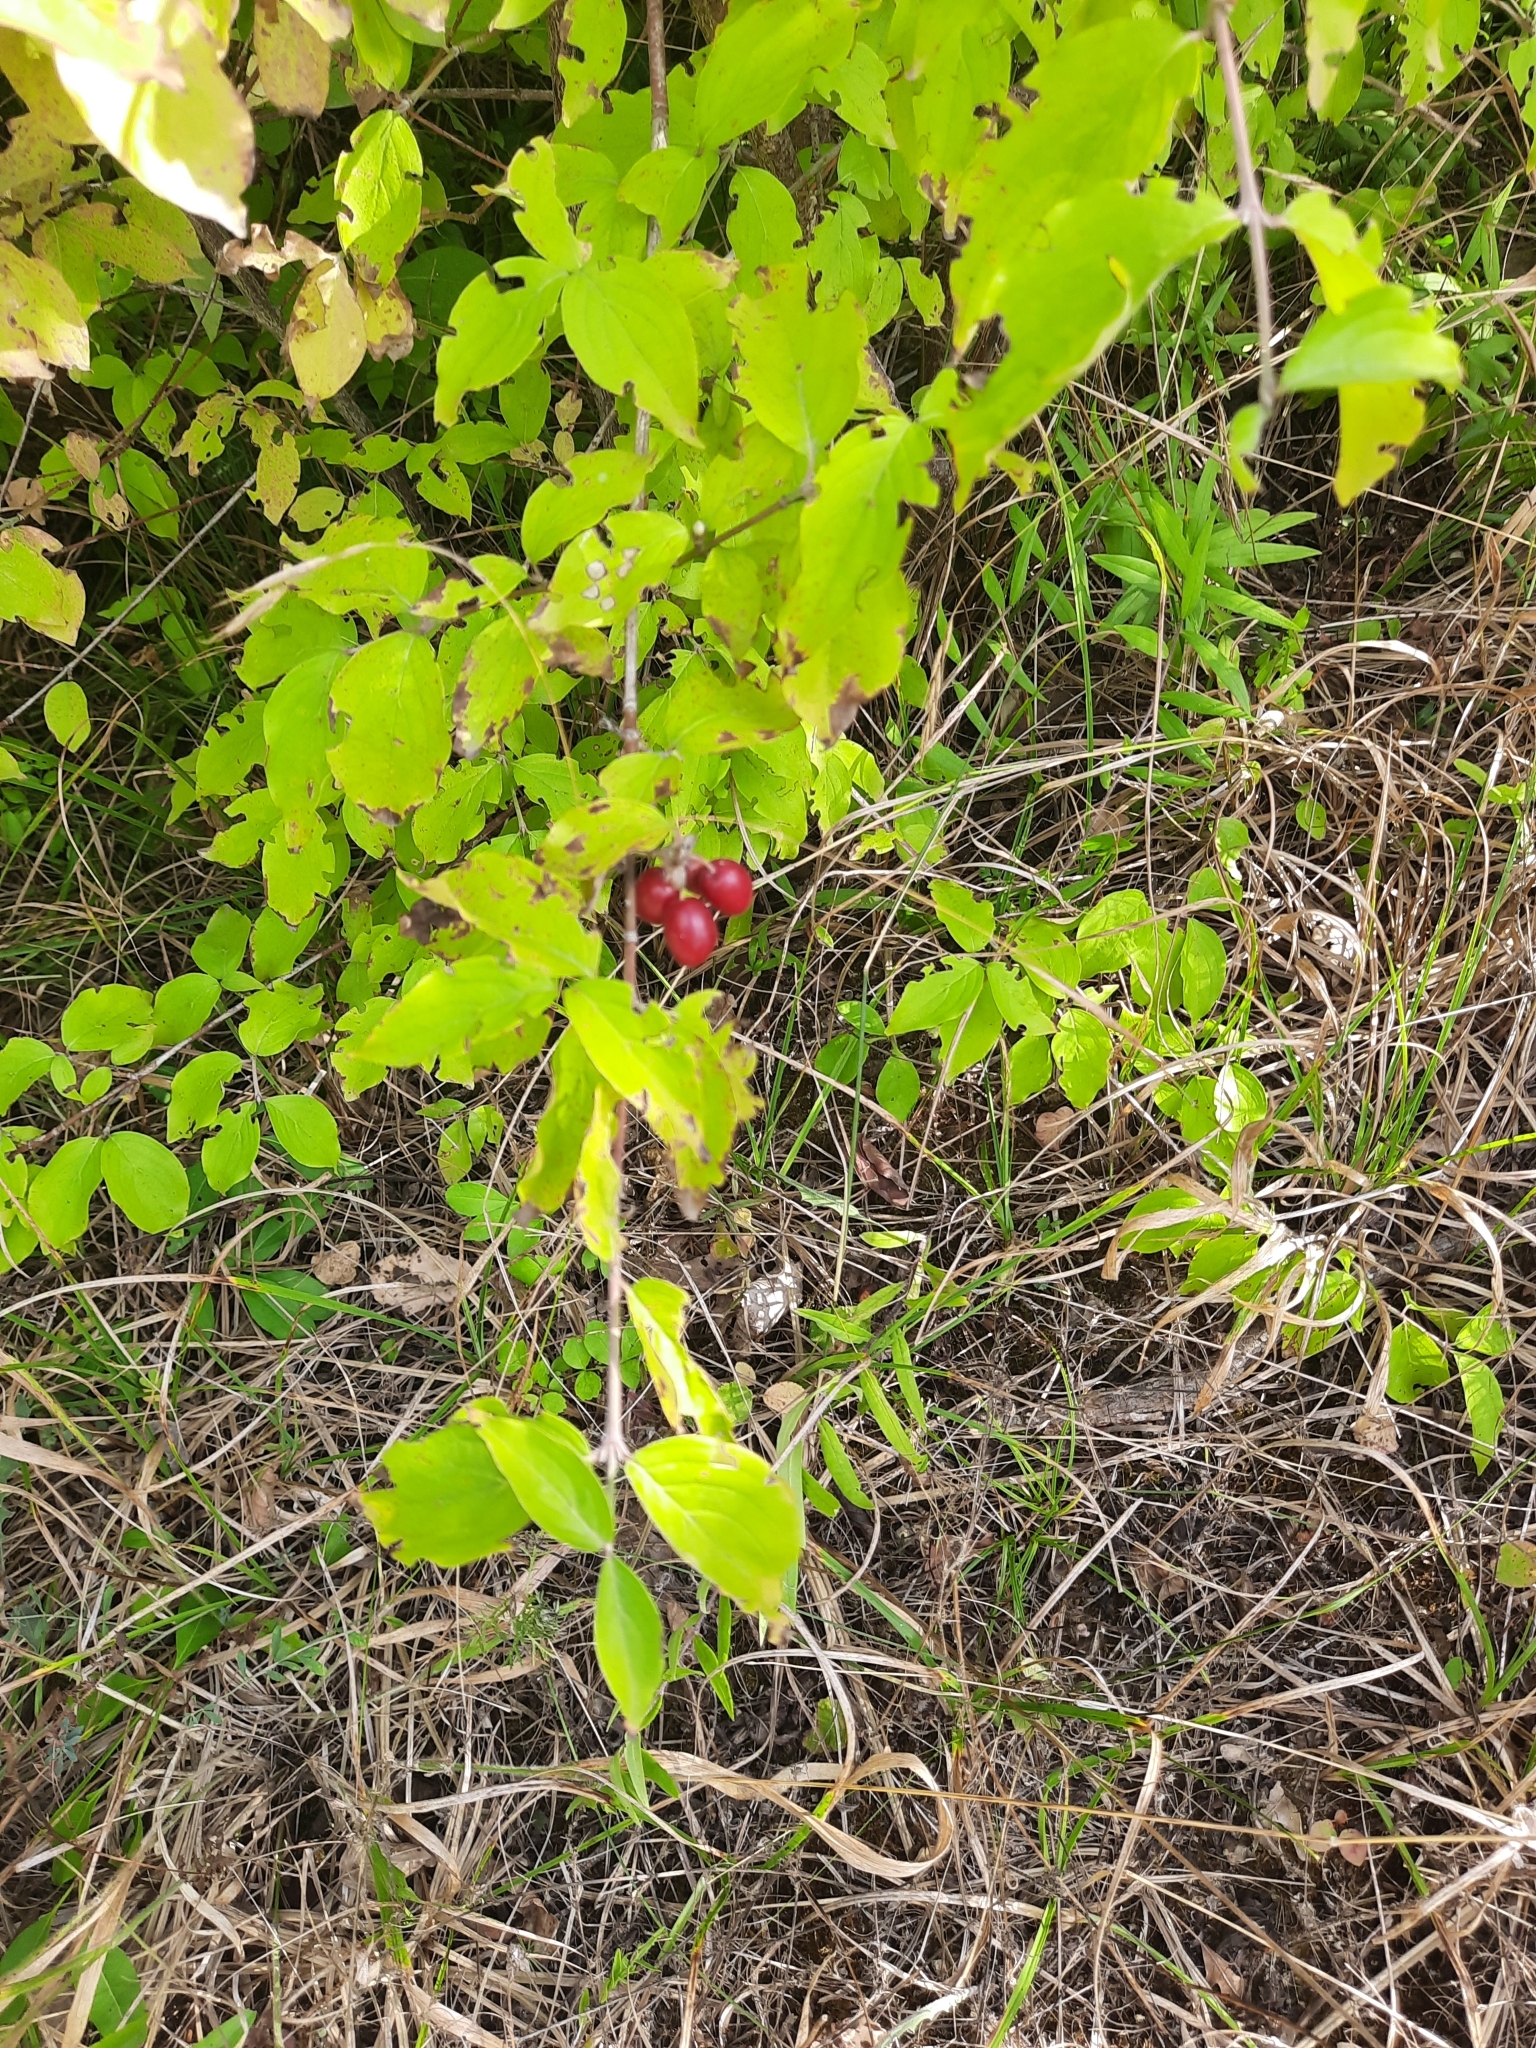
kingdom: Plantae
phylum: Tracheophyta
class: Magnoliopsida
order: Cornales
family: Cornaceae
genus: Cornus
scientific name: Cornus mas
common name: Cornelian-cherry
